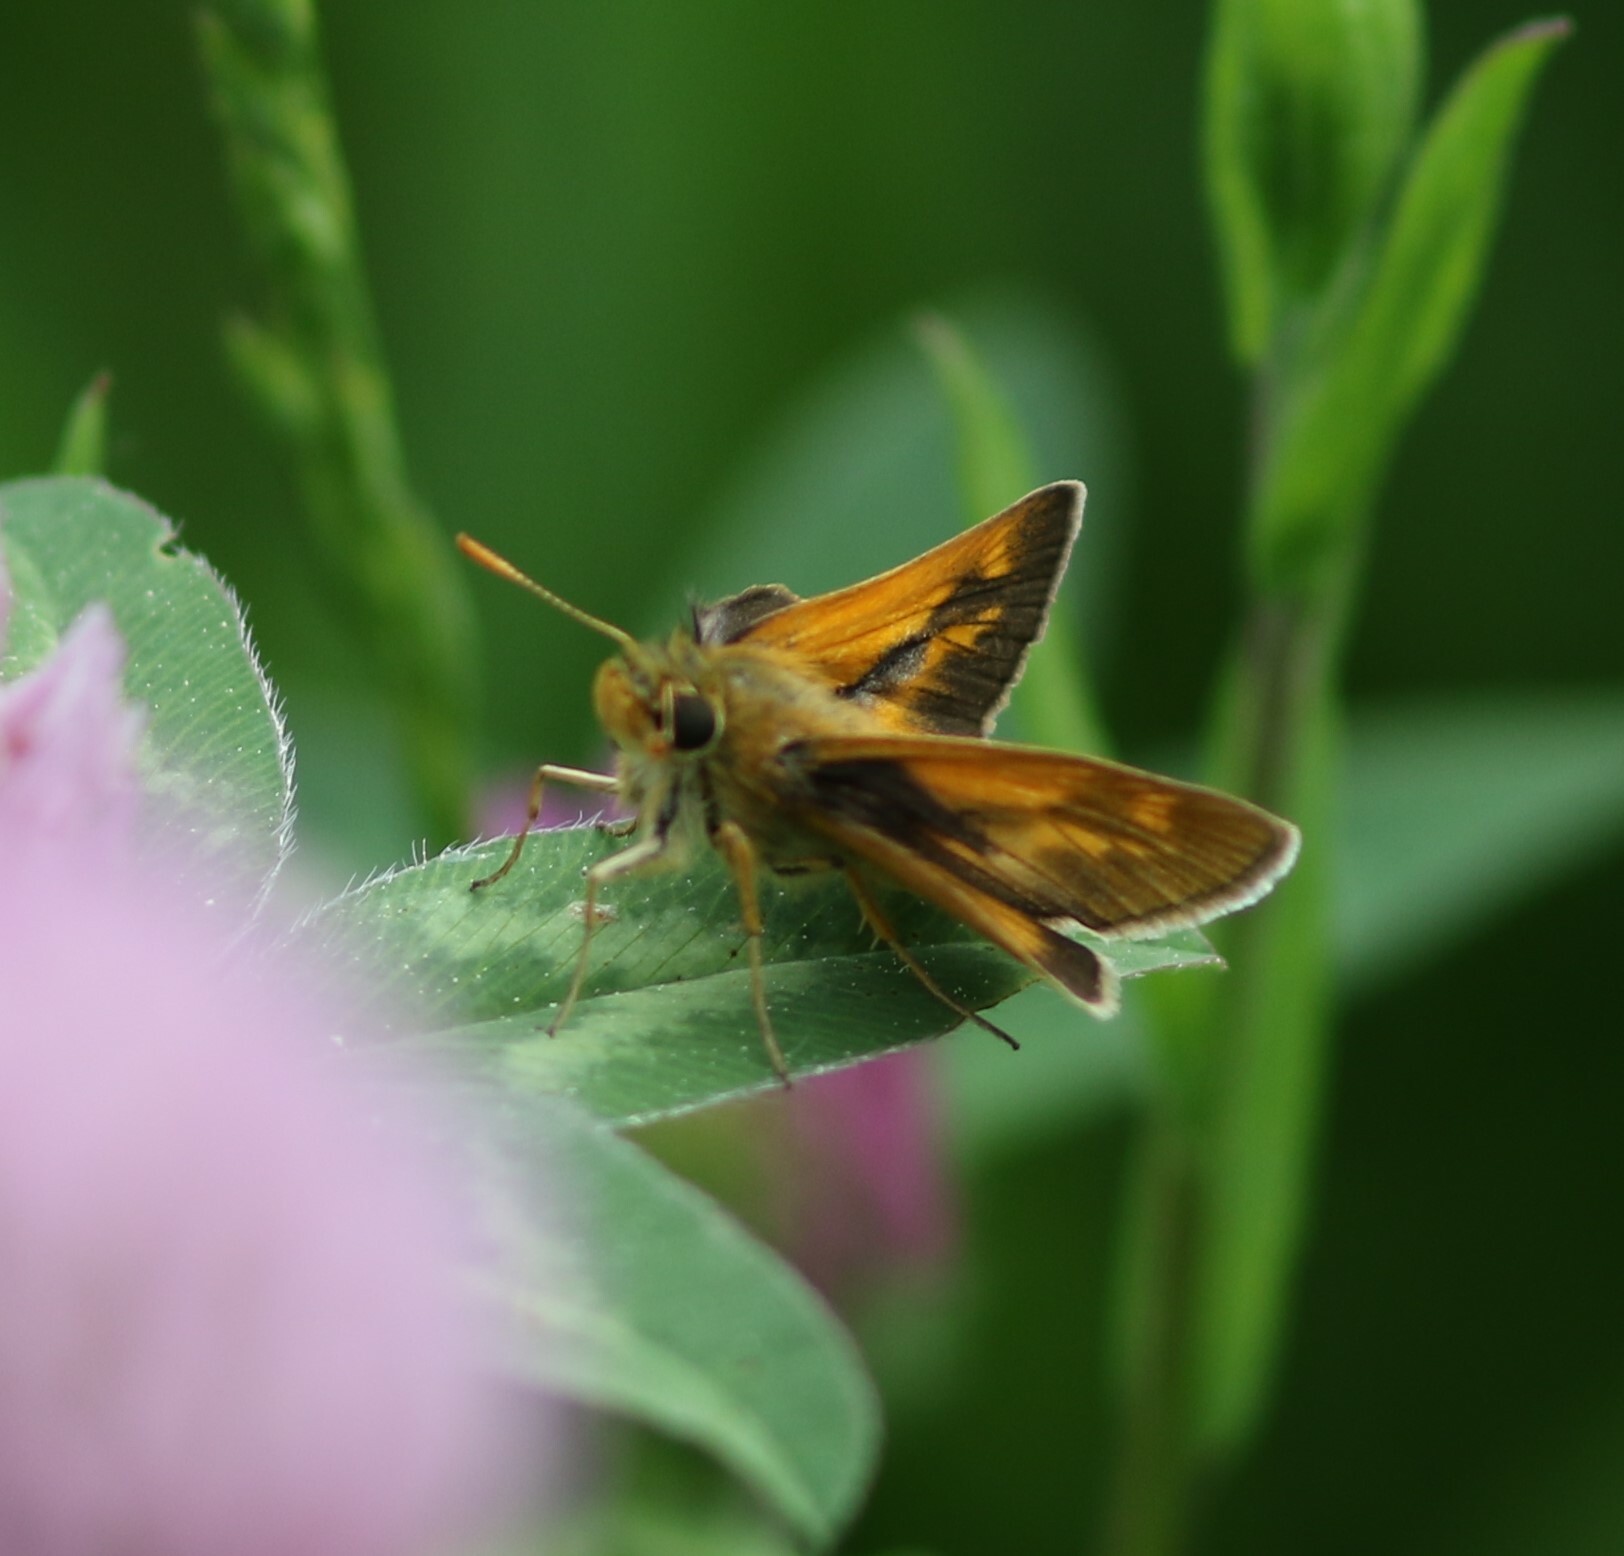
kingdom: Animalia
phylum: Arthropoda
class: Insecta
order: Lepidoptera
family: Hesperiidae
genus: Polites
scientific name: Polites mystic
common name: Long dash
